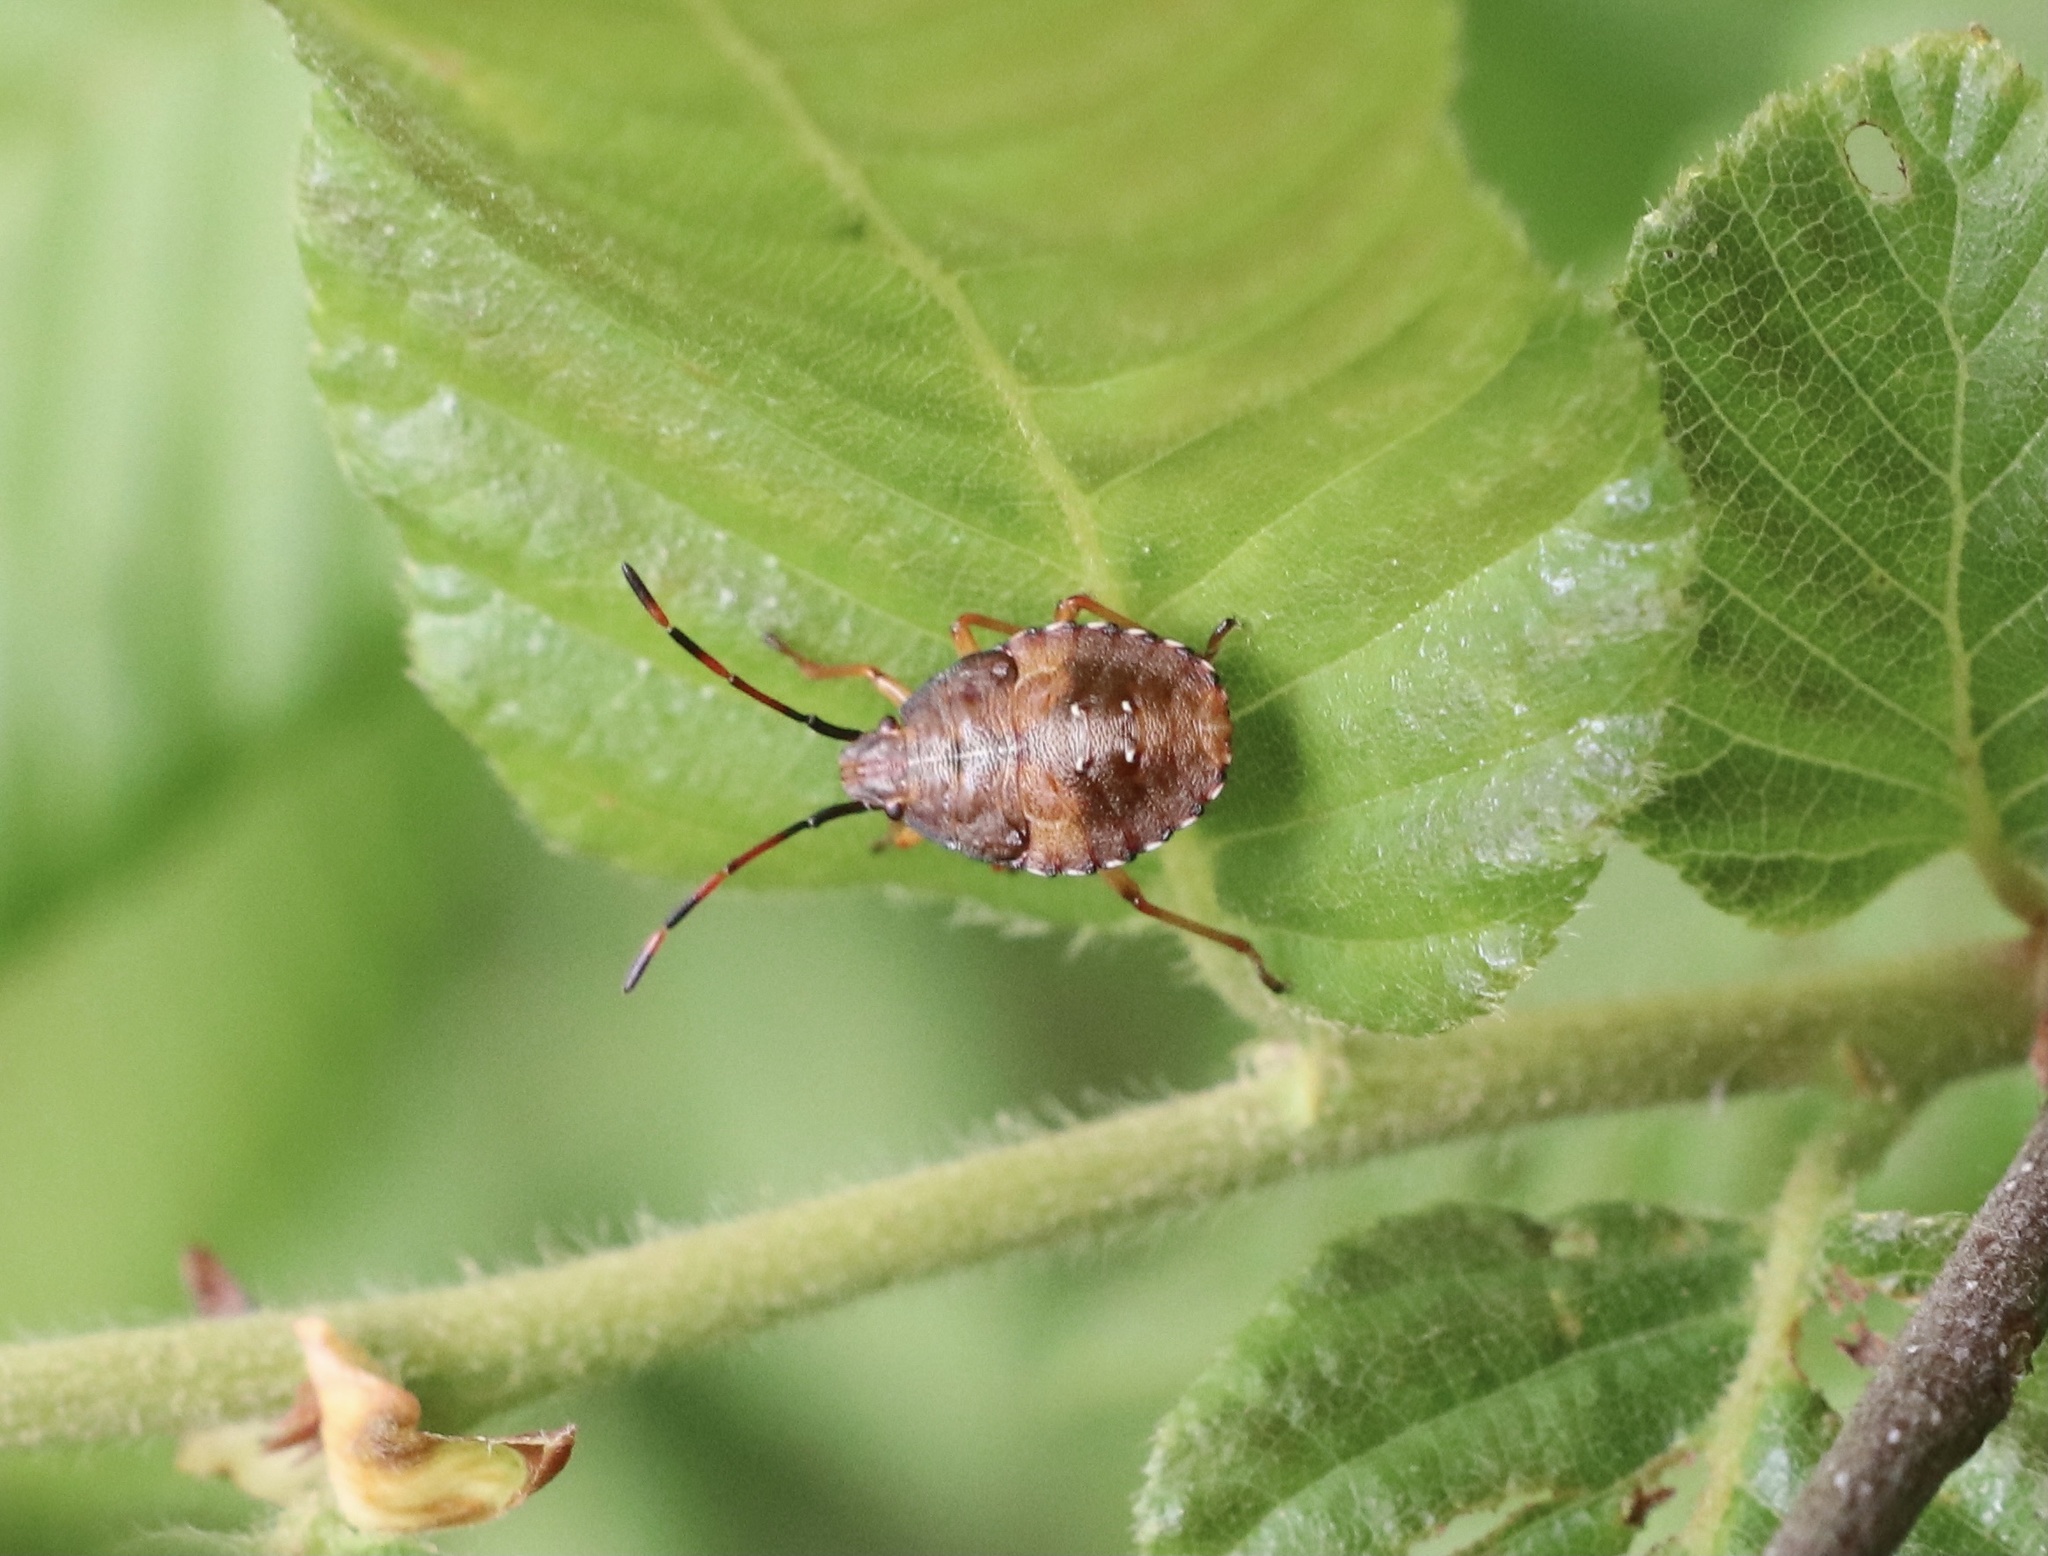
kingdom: Animalia
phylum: Arthropoda
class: Insecta
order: Hemiptera
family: Acanthosomatidae
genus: Planois
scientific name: Planois gayi
